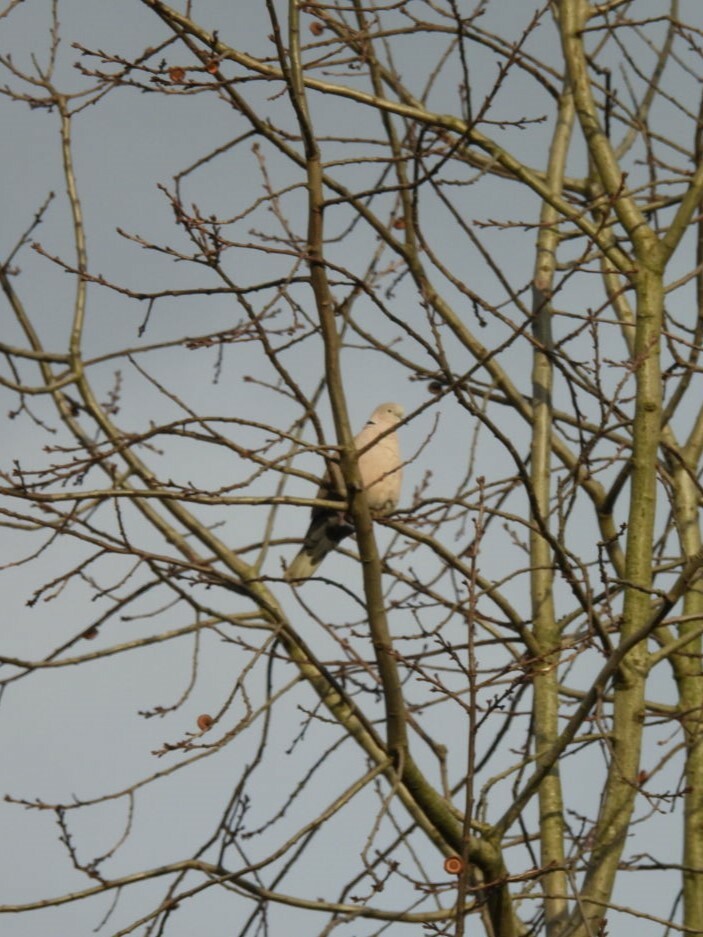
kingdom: Animalia
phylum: Chordata
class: Aves
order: Columbiformes
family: Columbidae
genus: Streptopelia
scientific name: Streptopelia decaocto
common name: Eurasian collared dove
